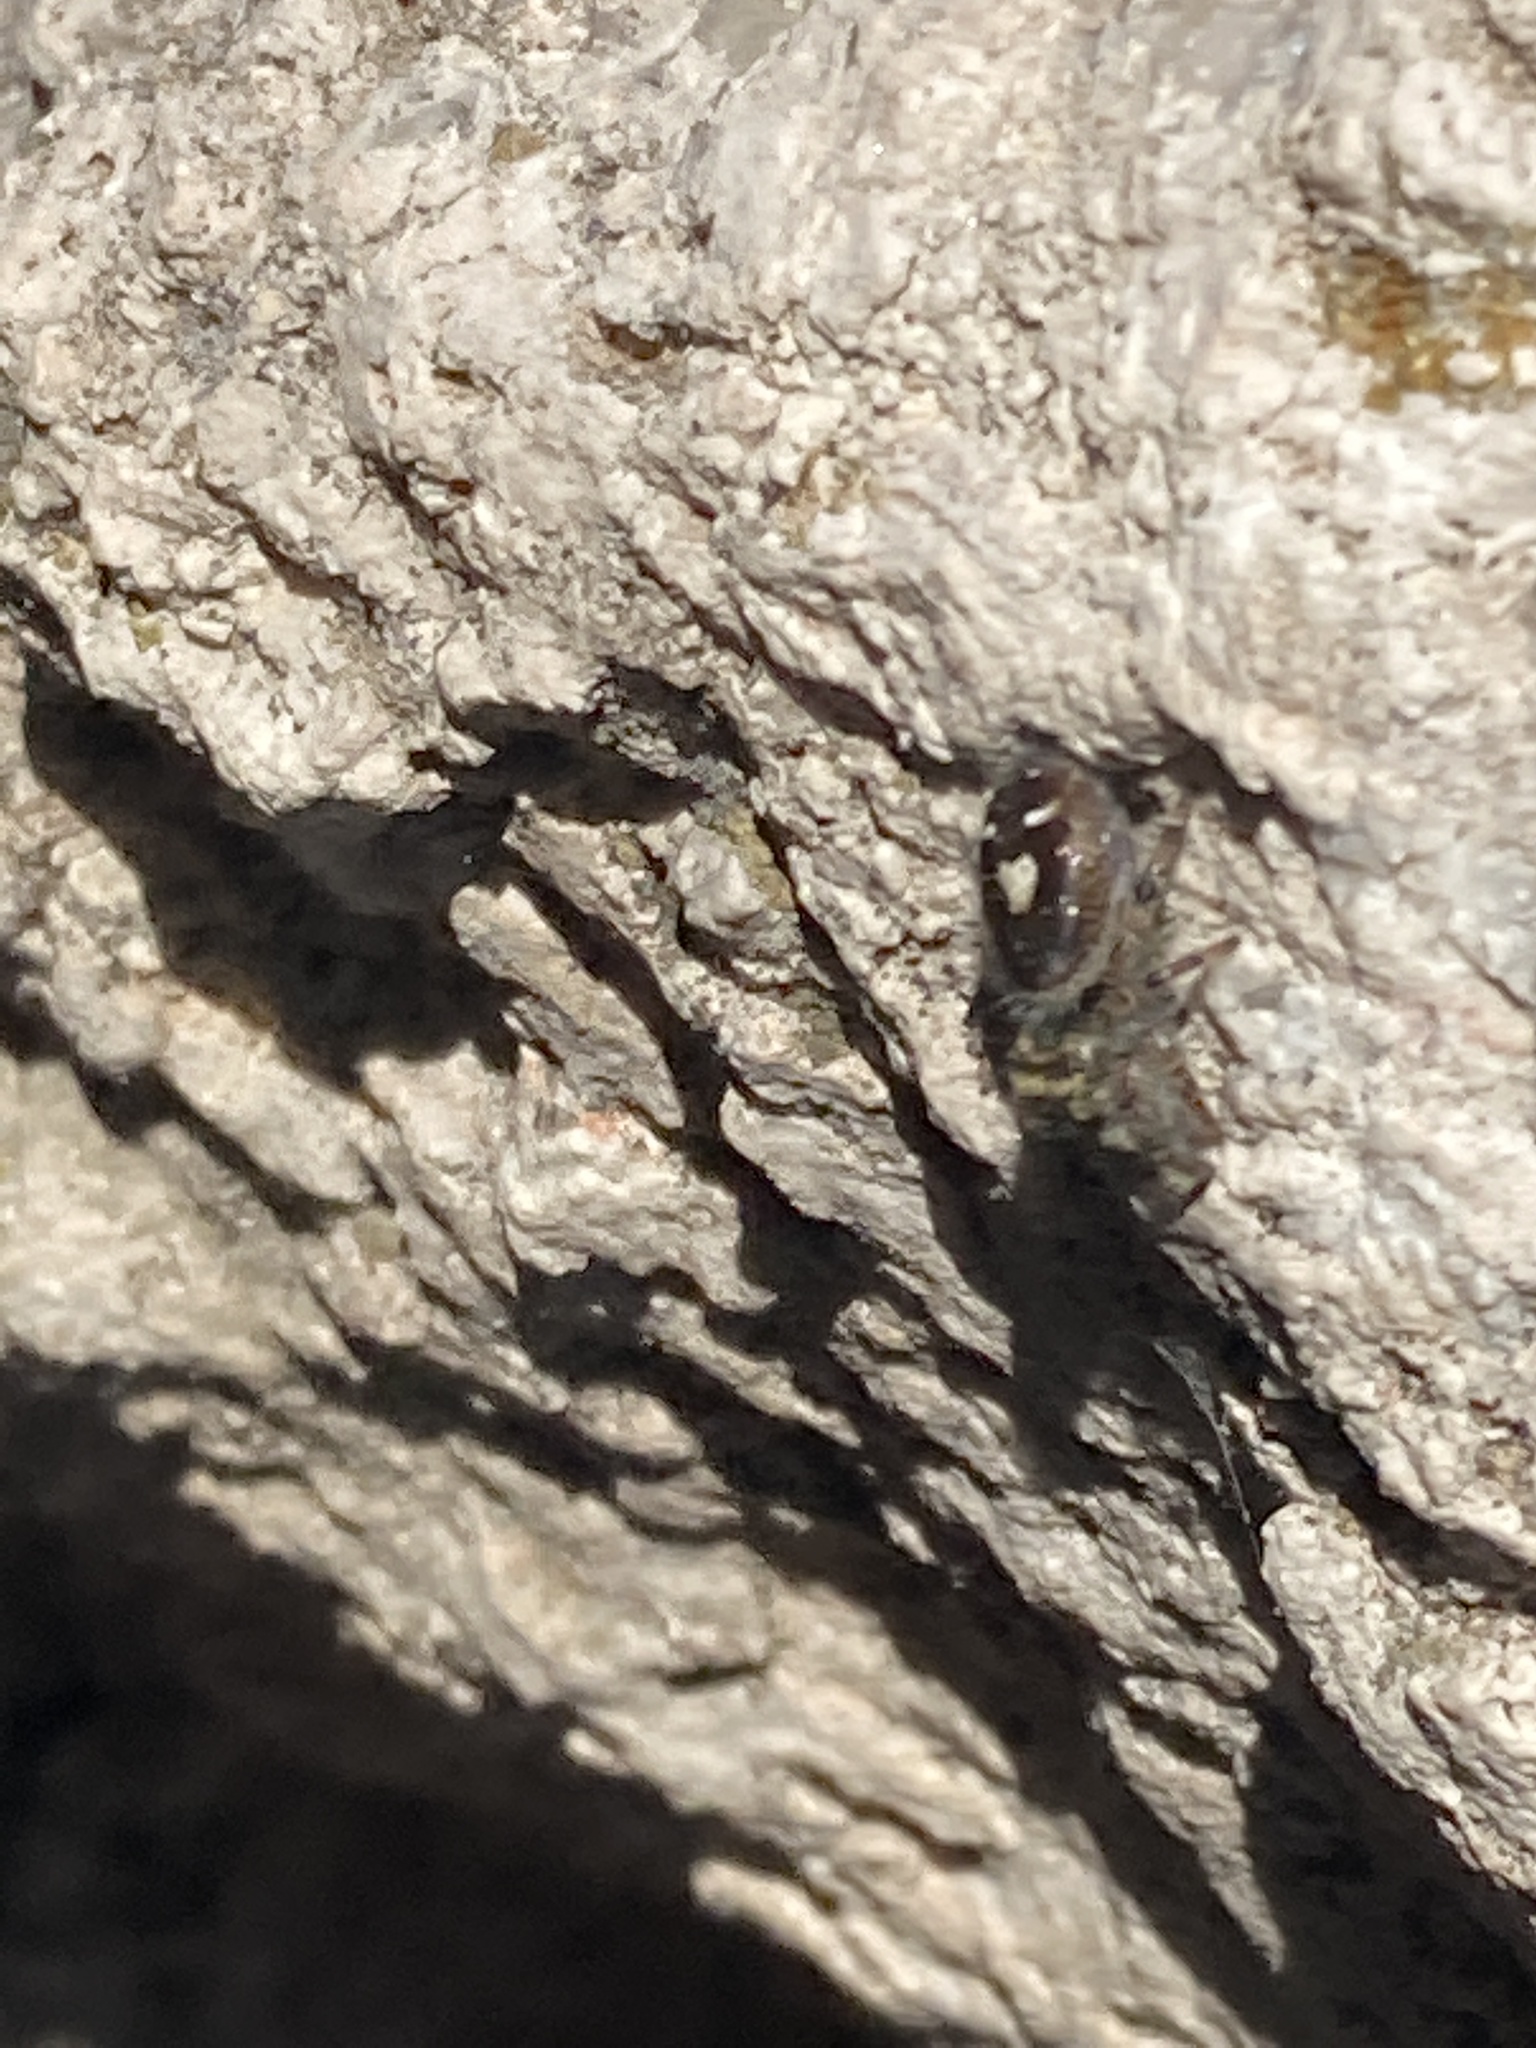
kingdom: Animalia
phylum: Arthropoda
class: Arachnida
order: Araneae
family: Salticidae
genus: Phidippus
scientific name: Phidippus audax
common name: Bold jumper
